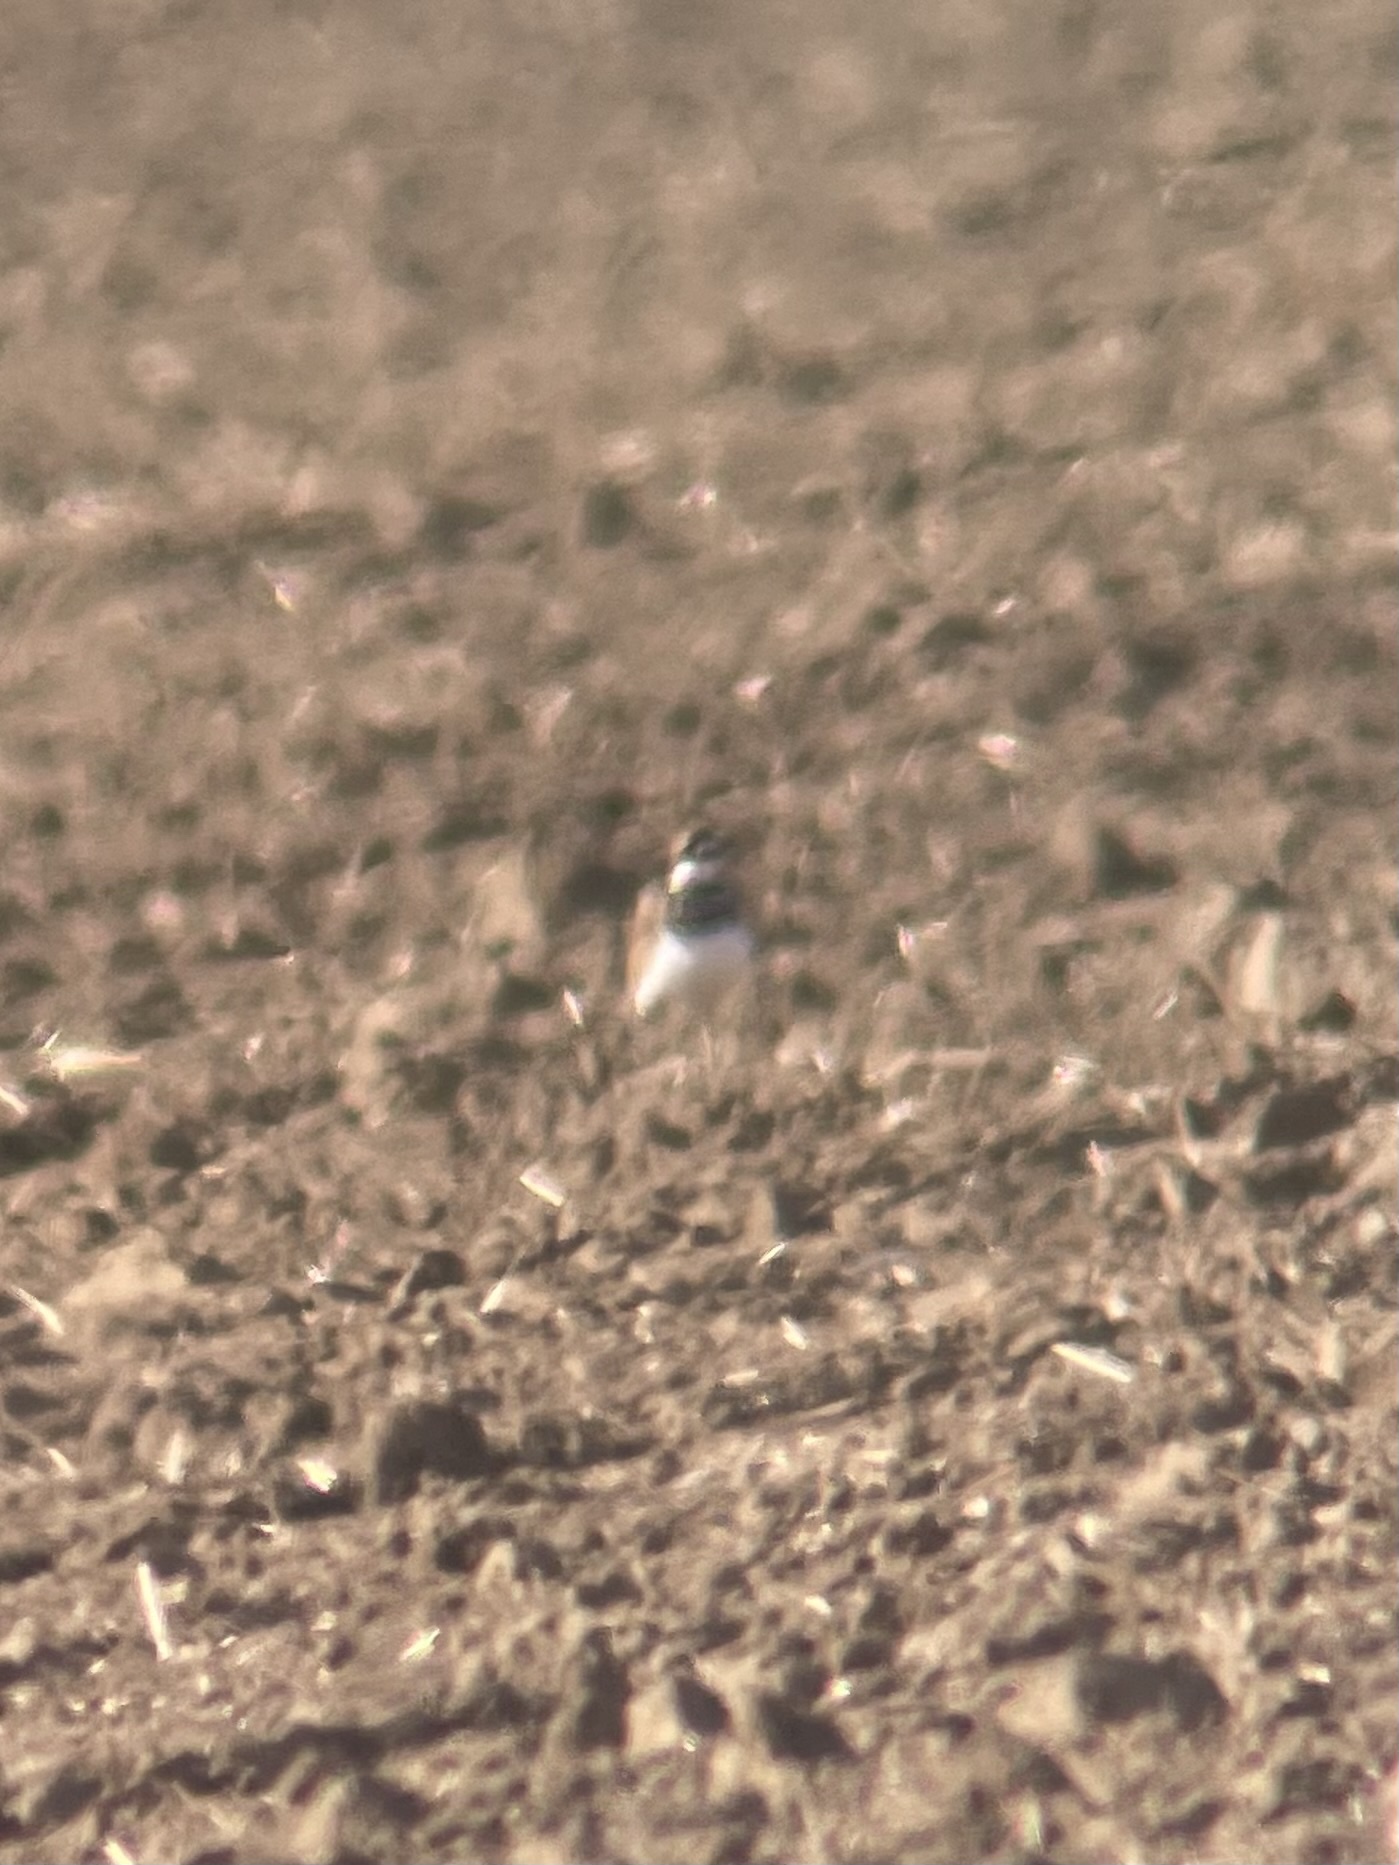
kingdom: Animalia
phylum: Chordata
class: Aves
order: Charadriiformes
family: Charadriidae
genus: Charadrius
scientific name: Charadrius vociferus
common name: Killdeer
